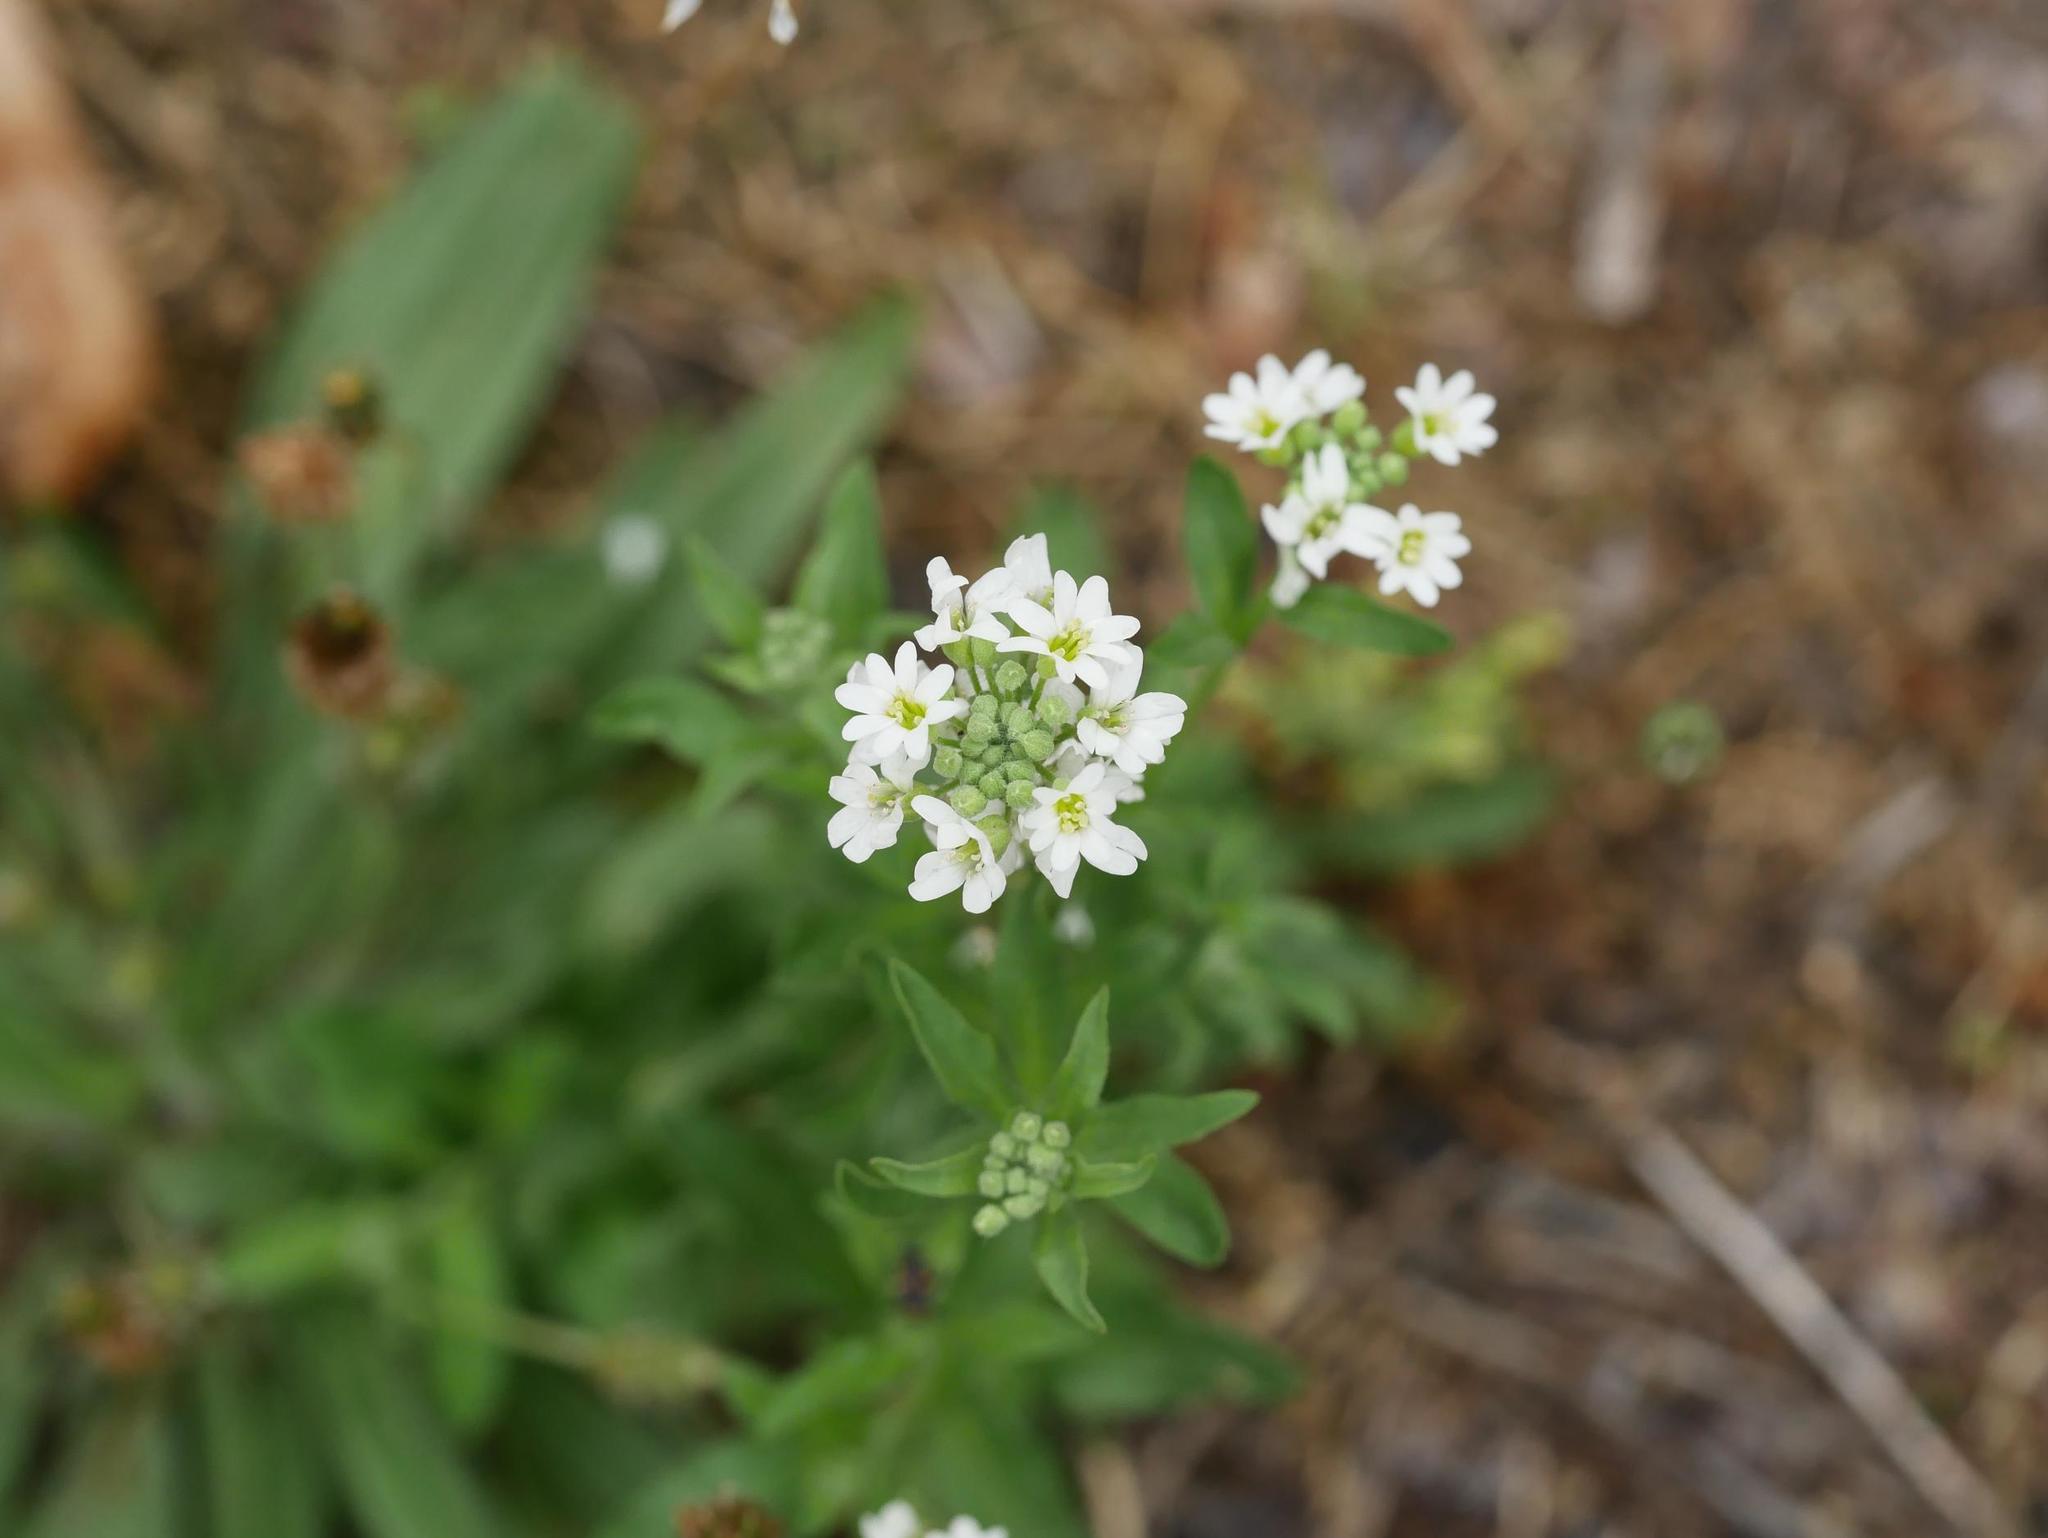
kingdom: Plantae
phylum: Tracheophyta
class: Magnoliopsida
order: Brassicales
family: Brassicaceae
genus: Berteroa
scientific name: Berteroa incana
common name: Hoary alison
